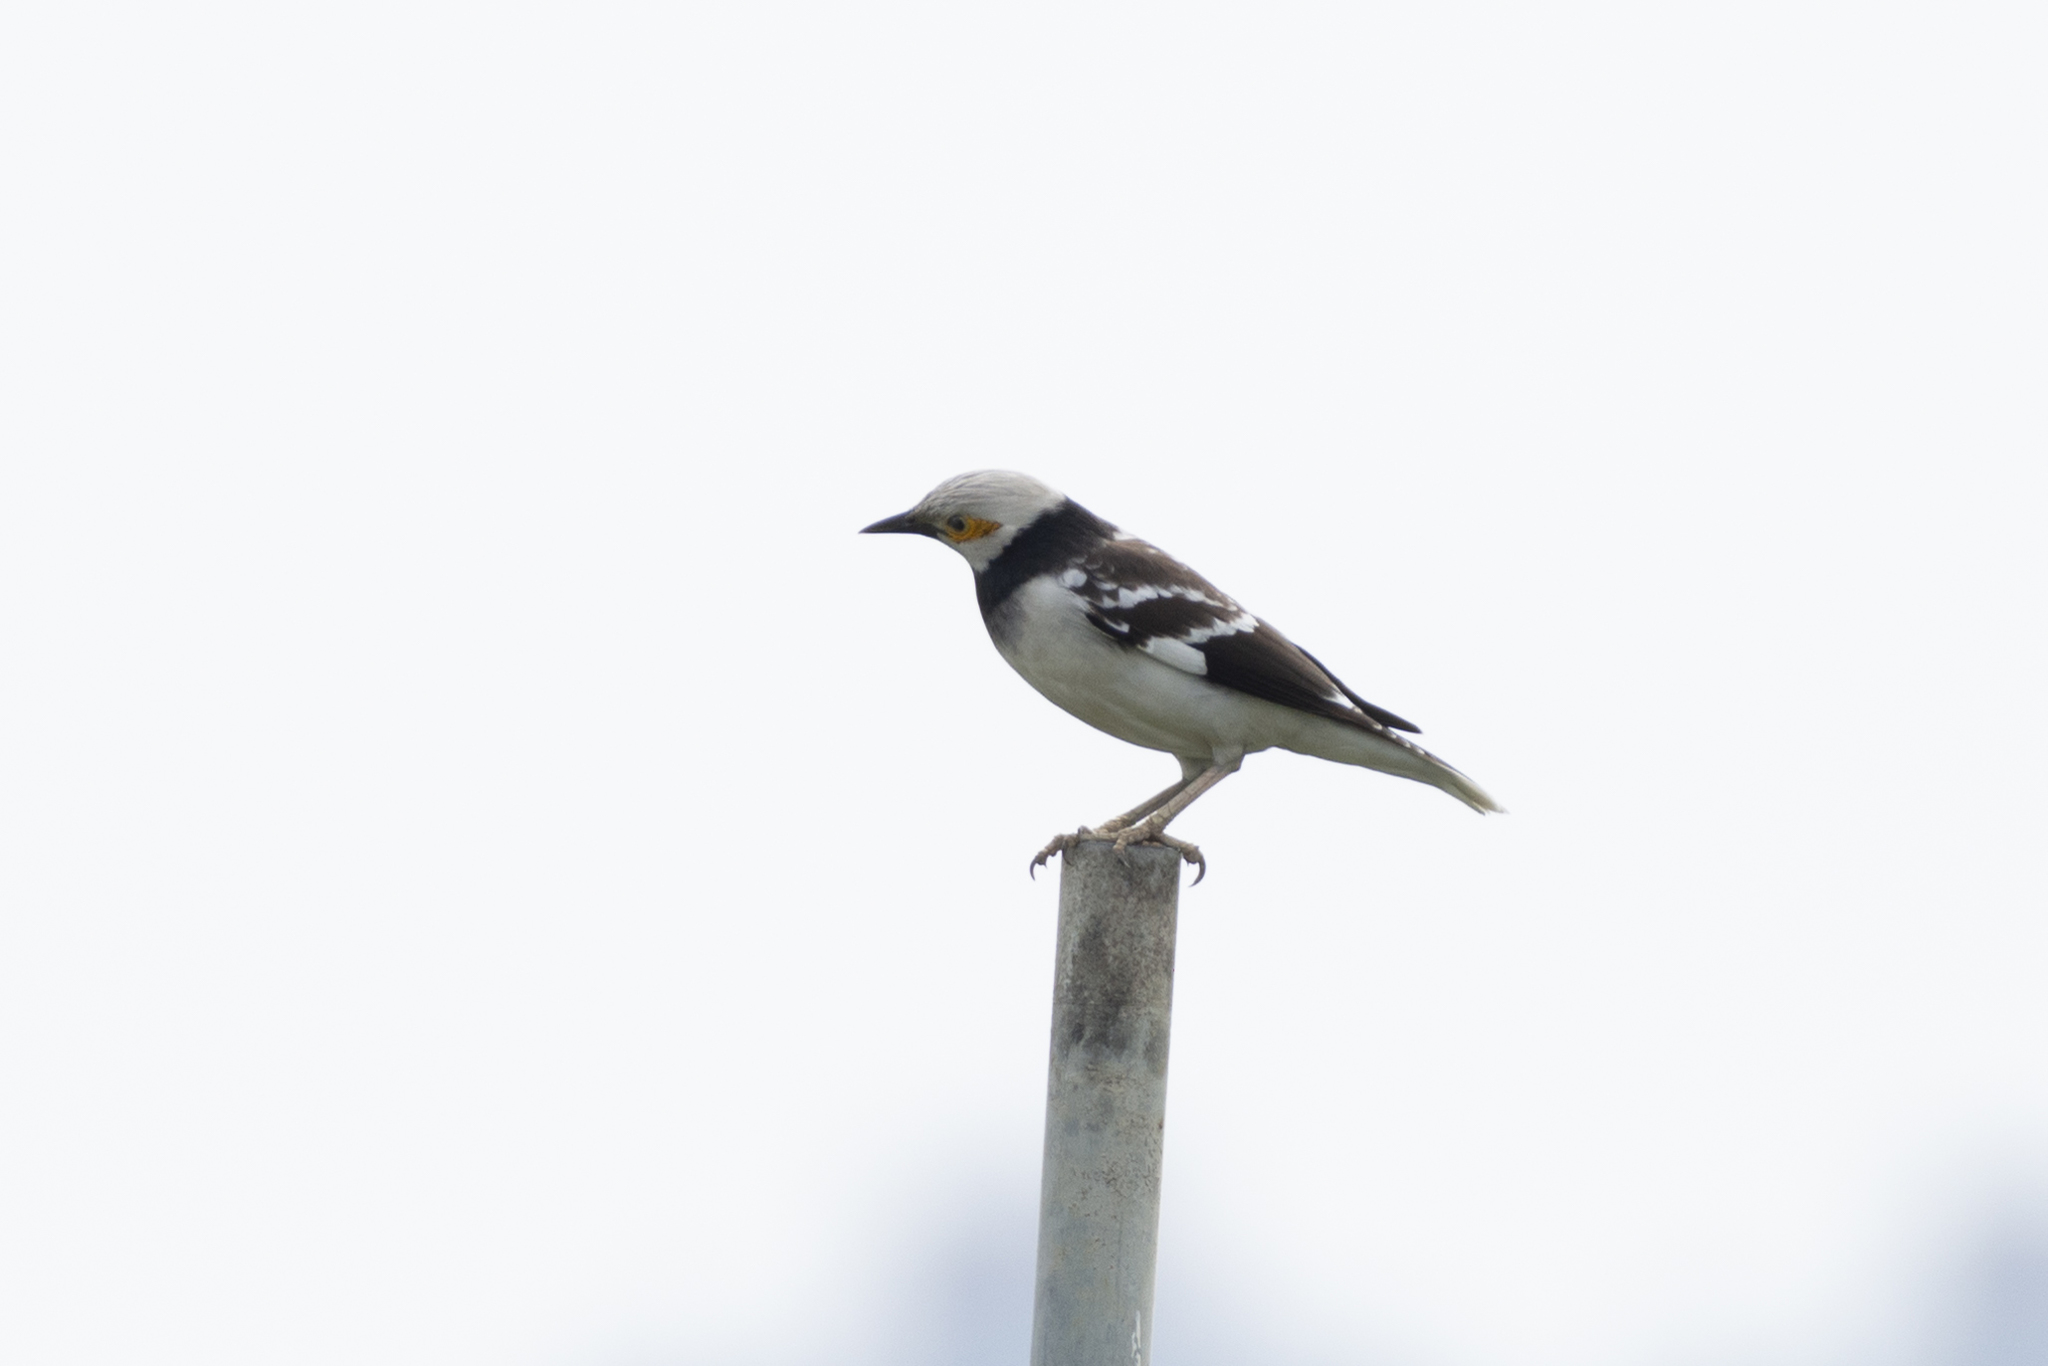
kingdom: Animalia
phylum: Chordata
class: Aves
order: Passeriformes
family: Sturnidae
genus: Gracupica
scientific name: Gracupica nigricollis
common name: Black-collared starling
